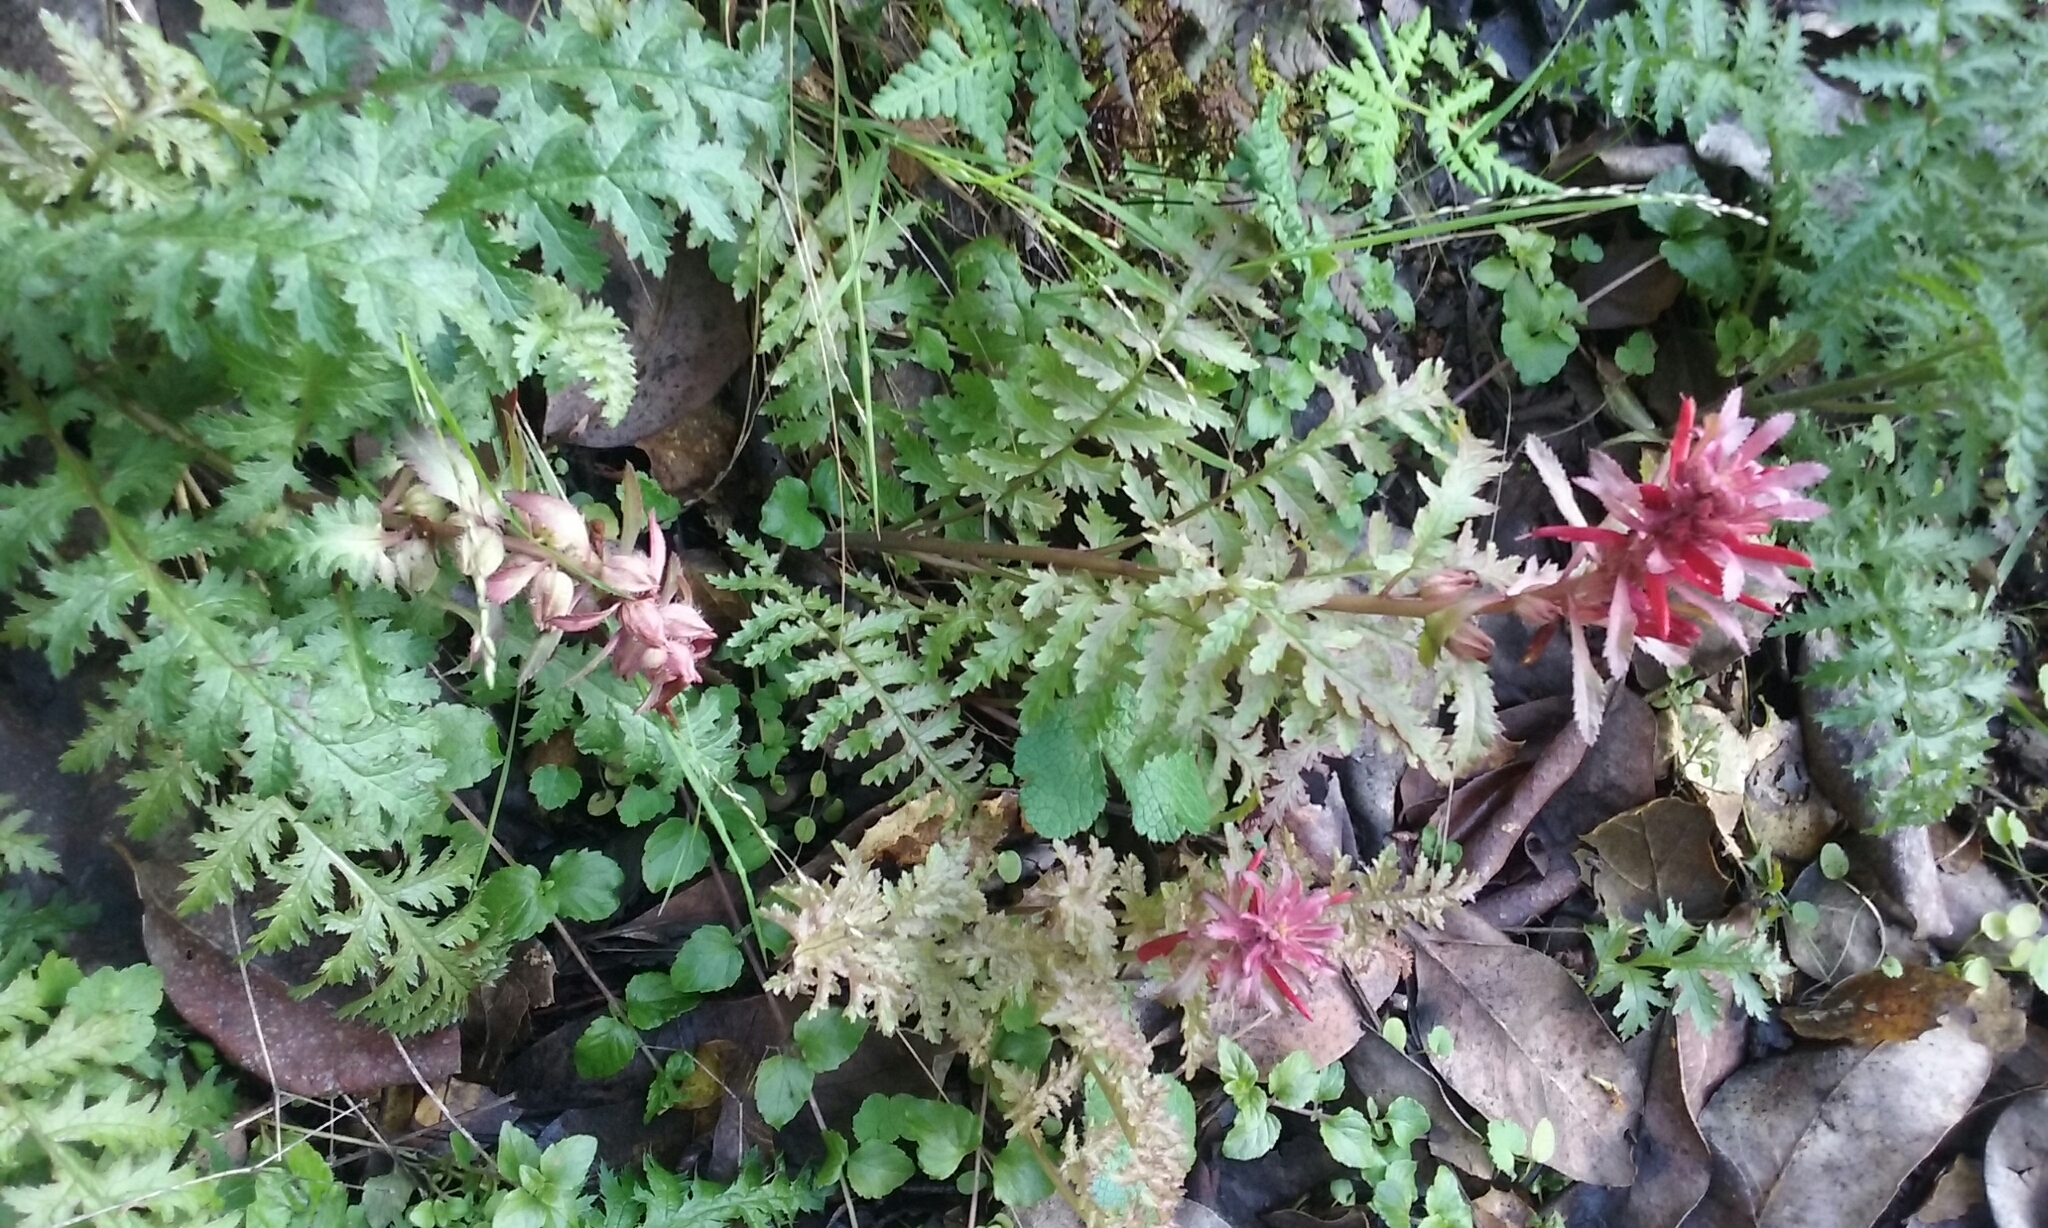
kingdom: Plantae
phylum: Tracheophyta
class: Magnoliopsida
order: Lamiales
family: Orobanchaceae
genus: Pedicularis
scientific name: Pedicularis densiflora
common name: Indian warrior
